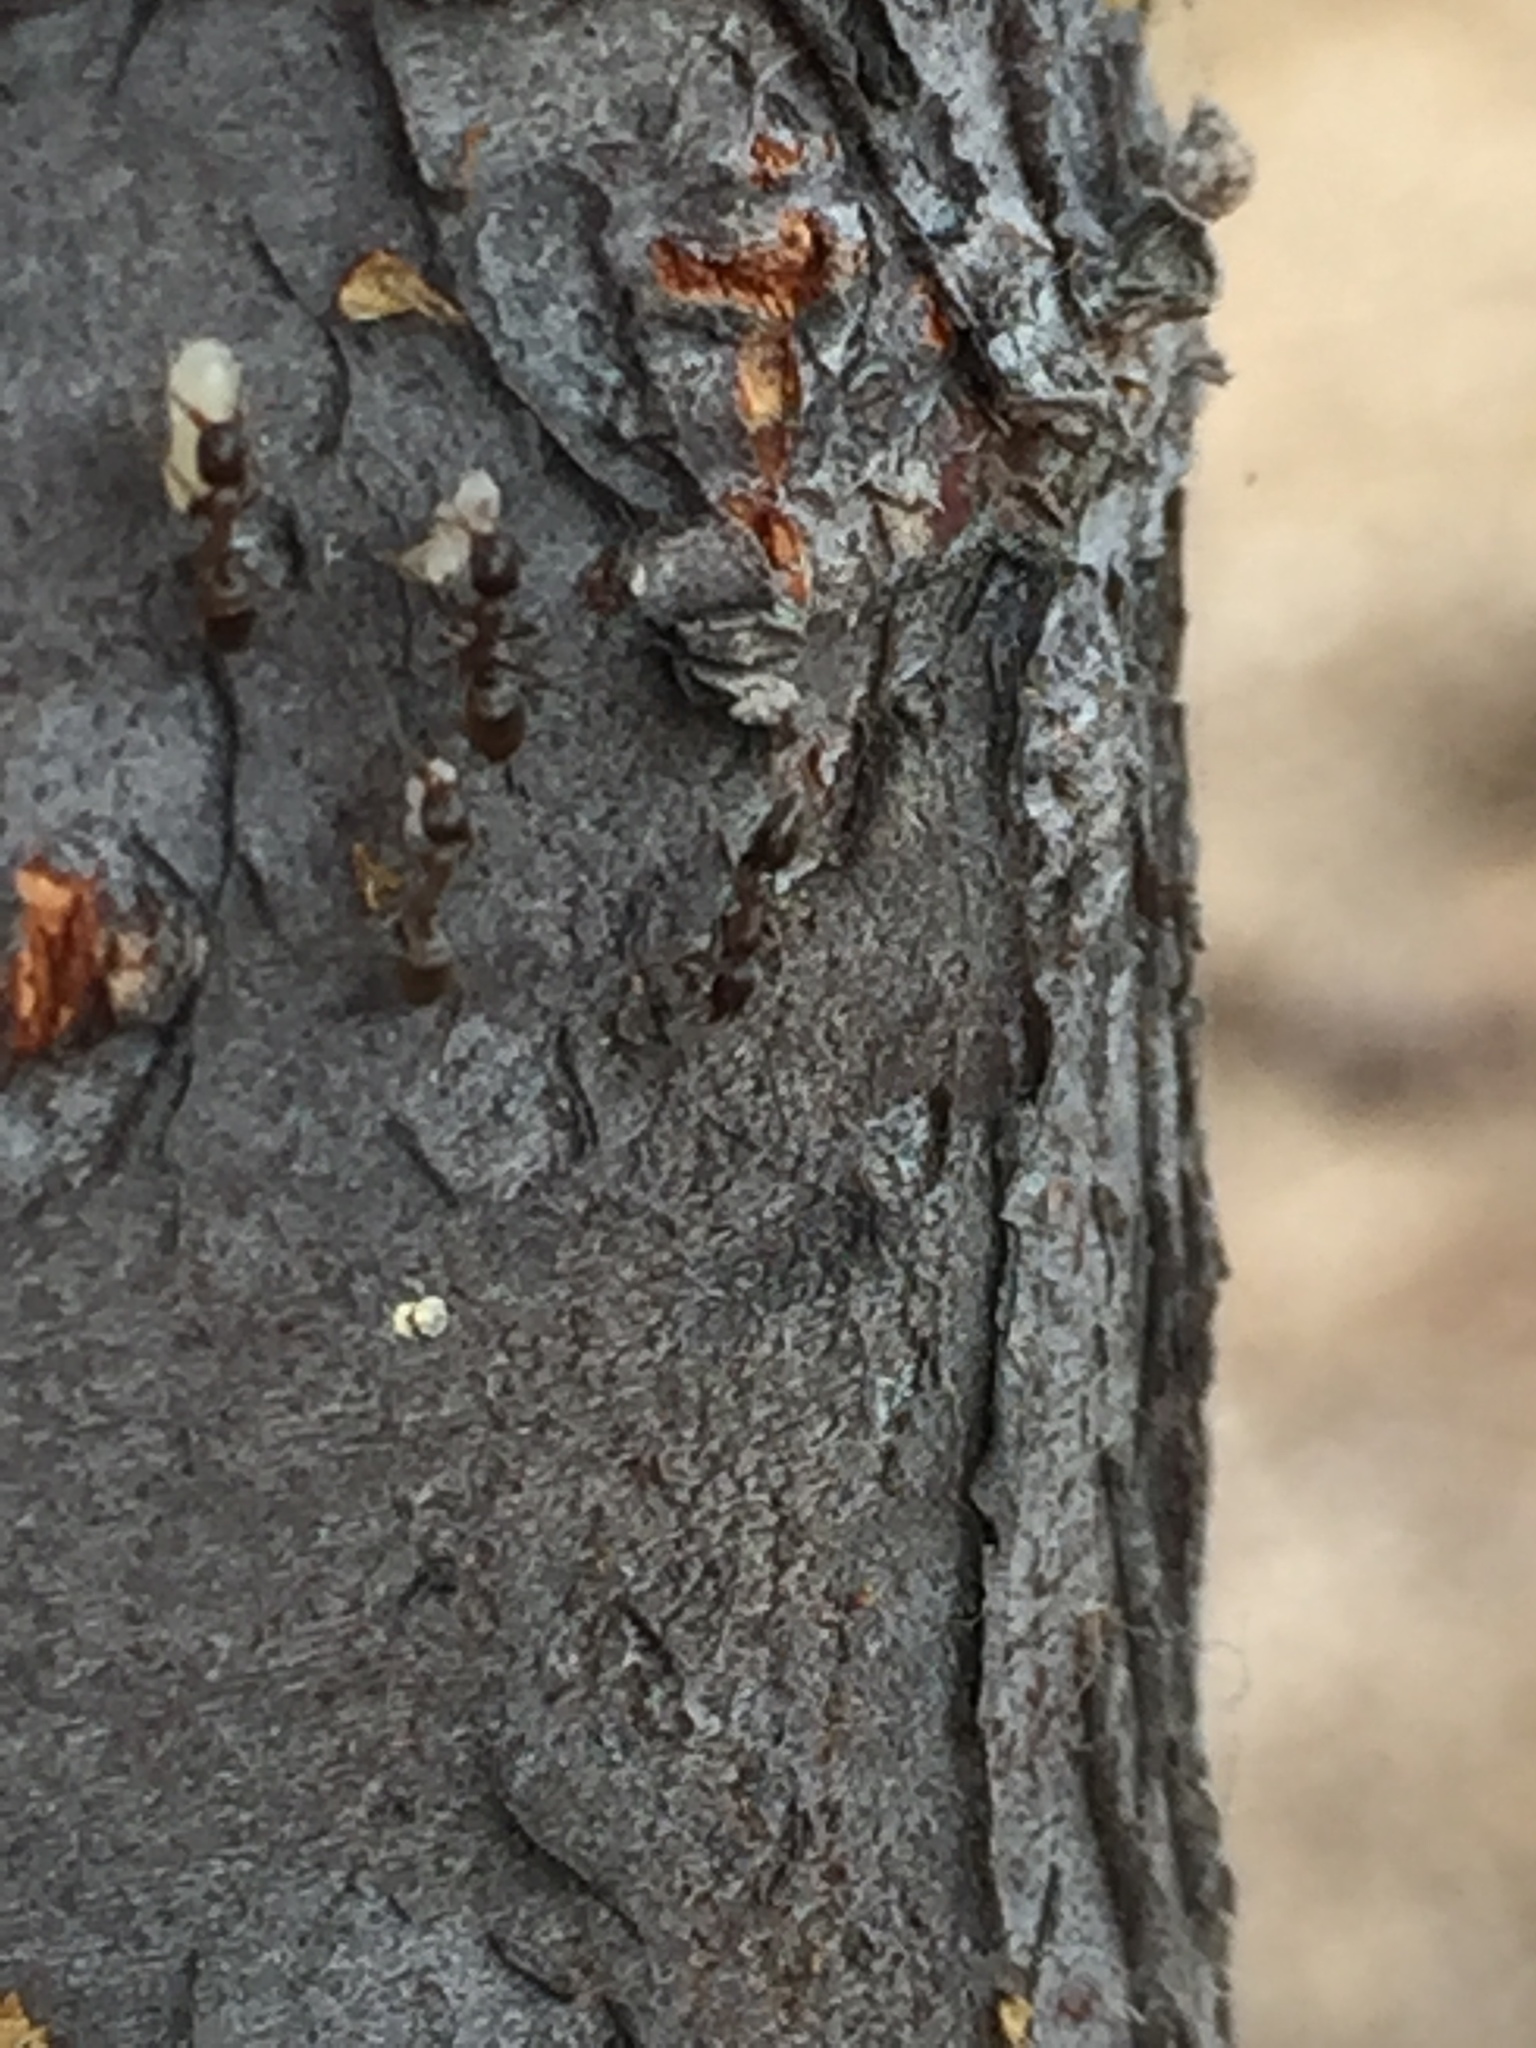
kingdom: Animalia
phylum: Arthropoda
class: Insecta
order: Hymenoptera
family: Formicidae
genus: Linepithema
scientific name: Linepithema humile
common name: Argentine ant
